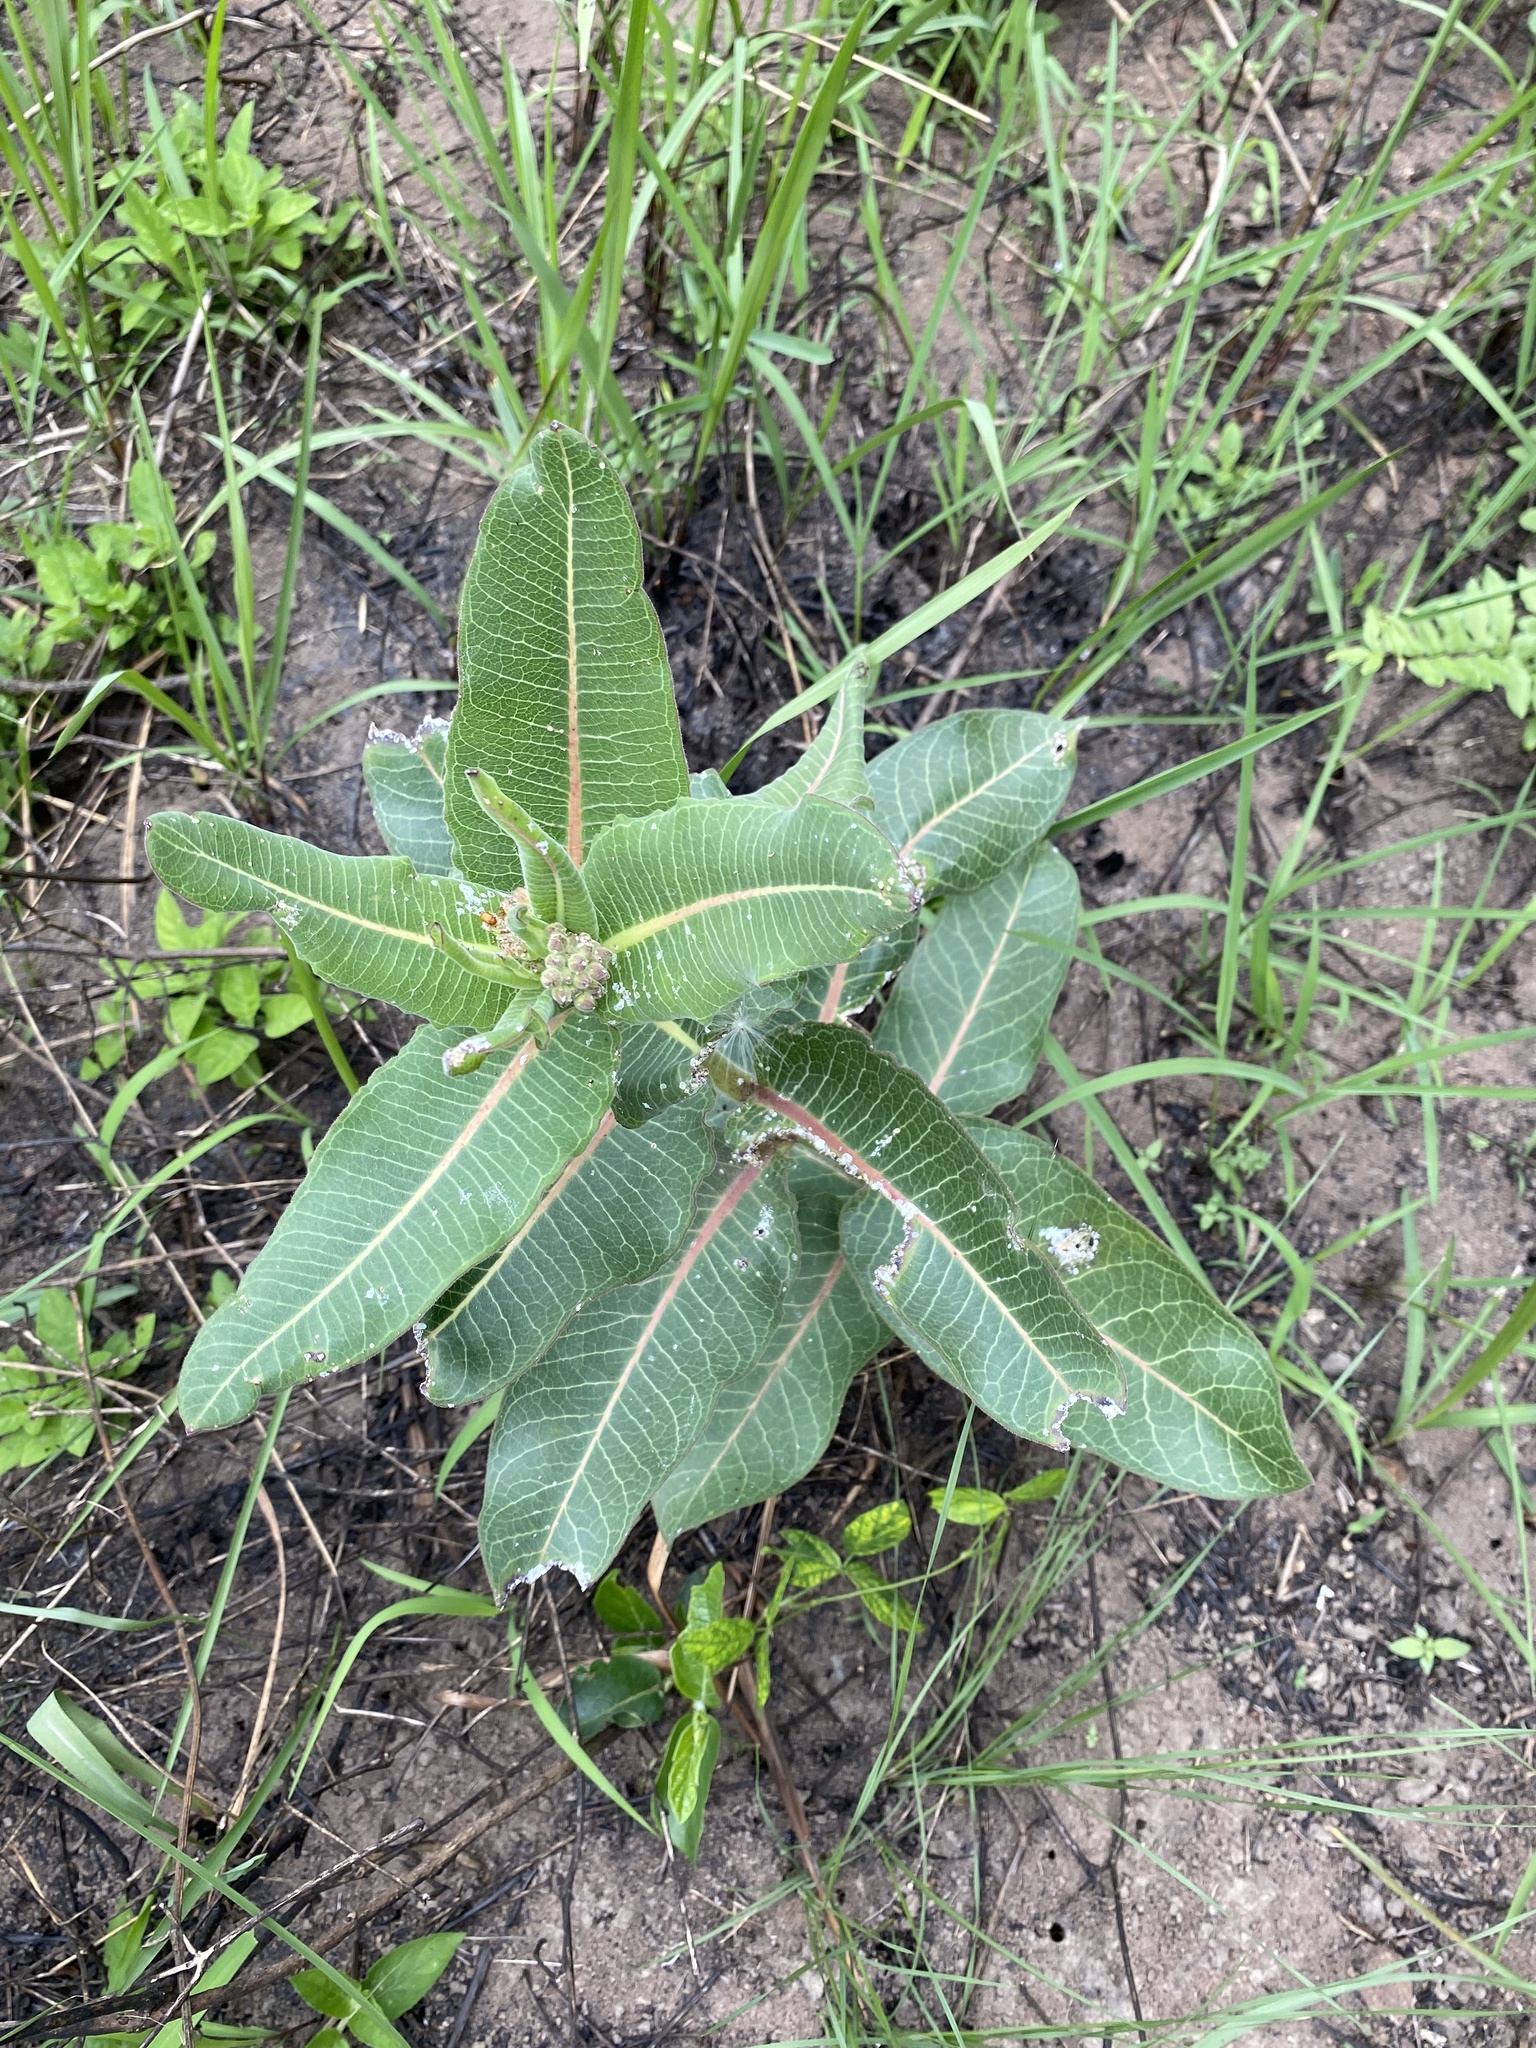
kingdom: Plantae
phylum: Tracheophyta
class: Magnoliopsida
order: Gentianales
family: Apocynaceae
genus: Xysmalobium
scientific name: Xysmalobium undulatum
